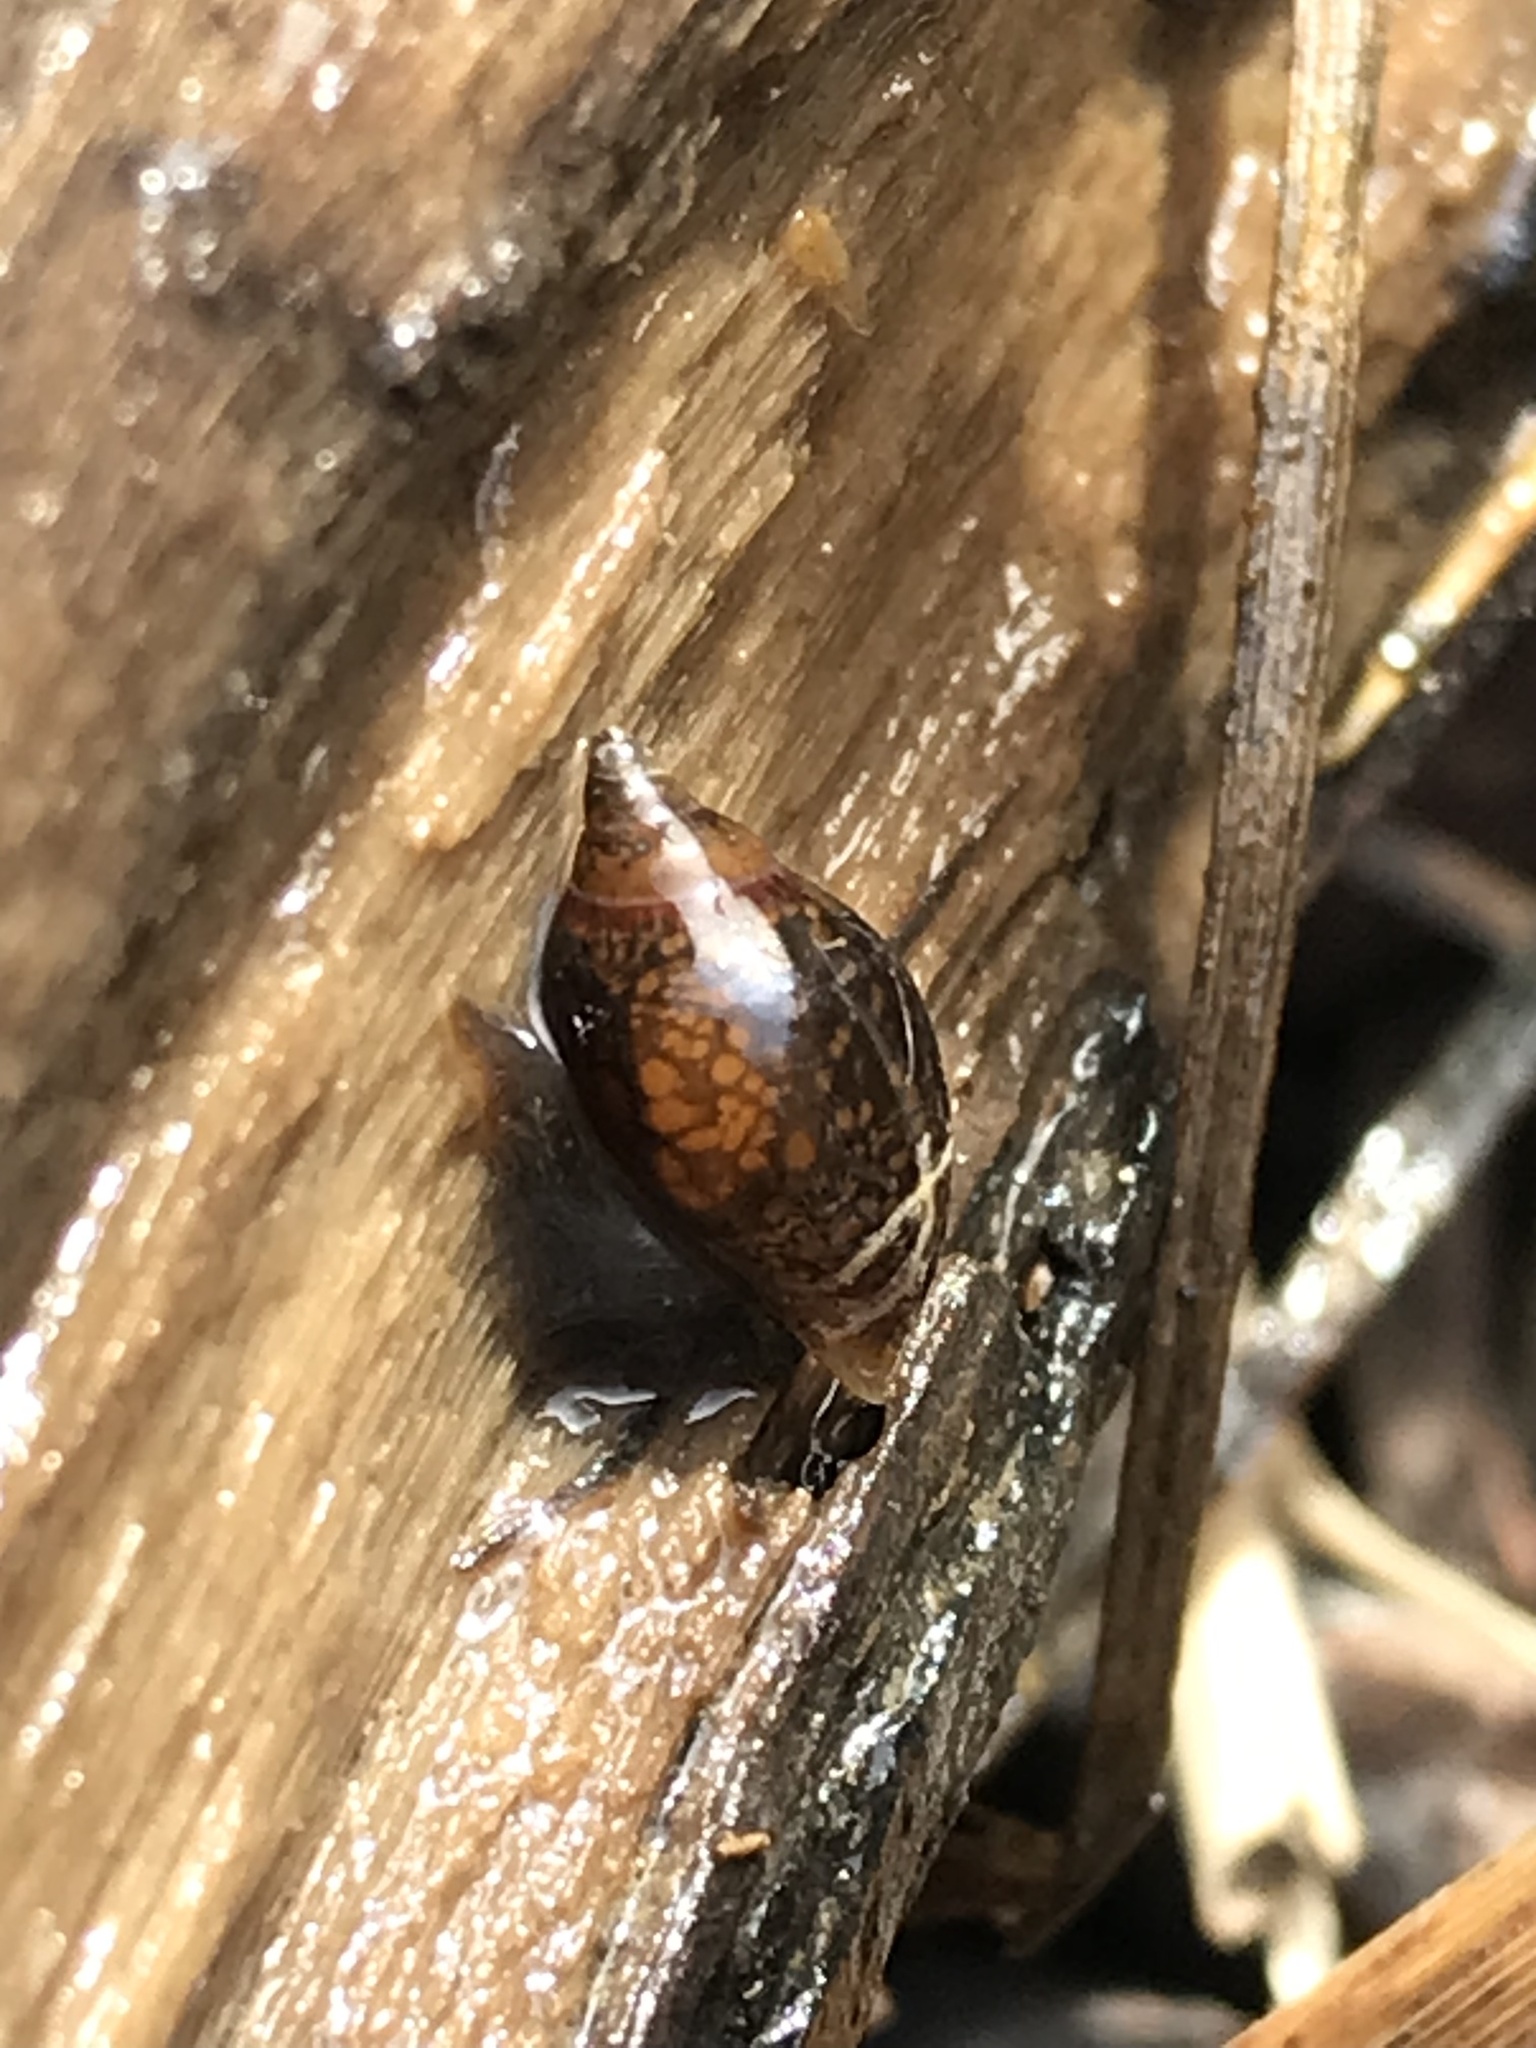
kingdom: Animalia
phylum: Mollusca
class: Gastropoda
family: Physidae
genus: Physella
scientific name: Physella acuta
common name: European physa
